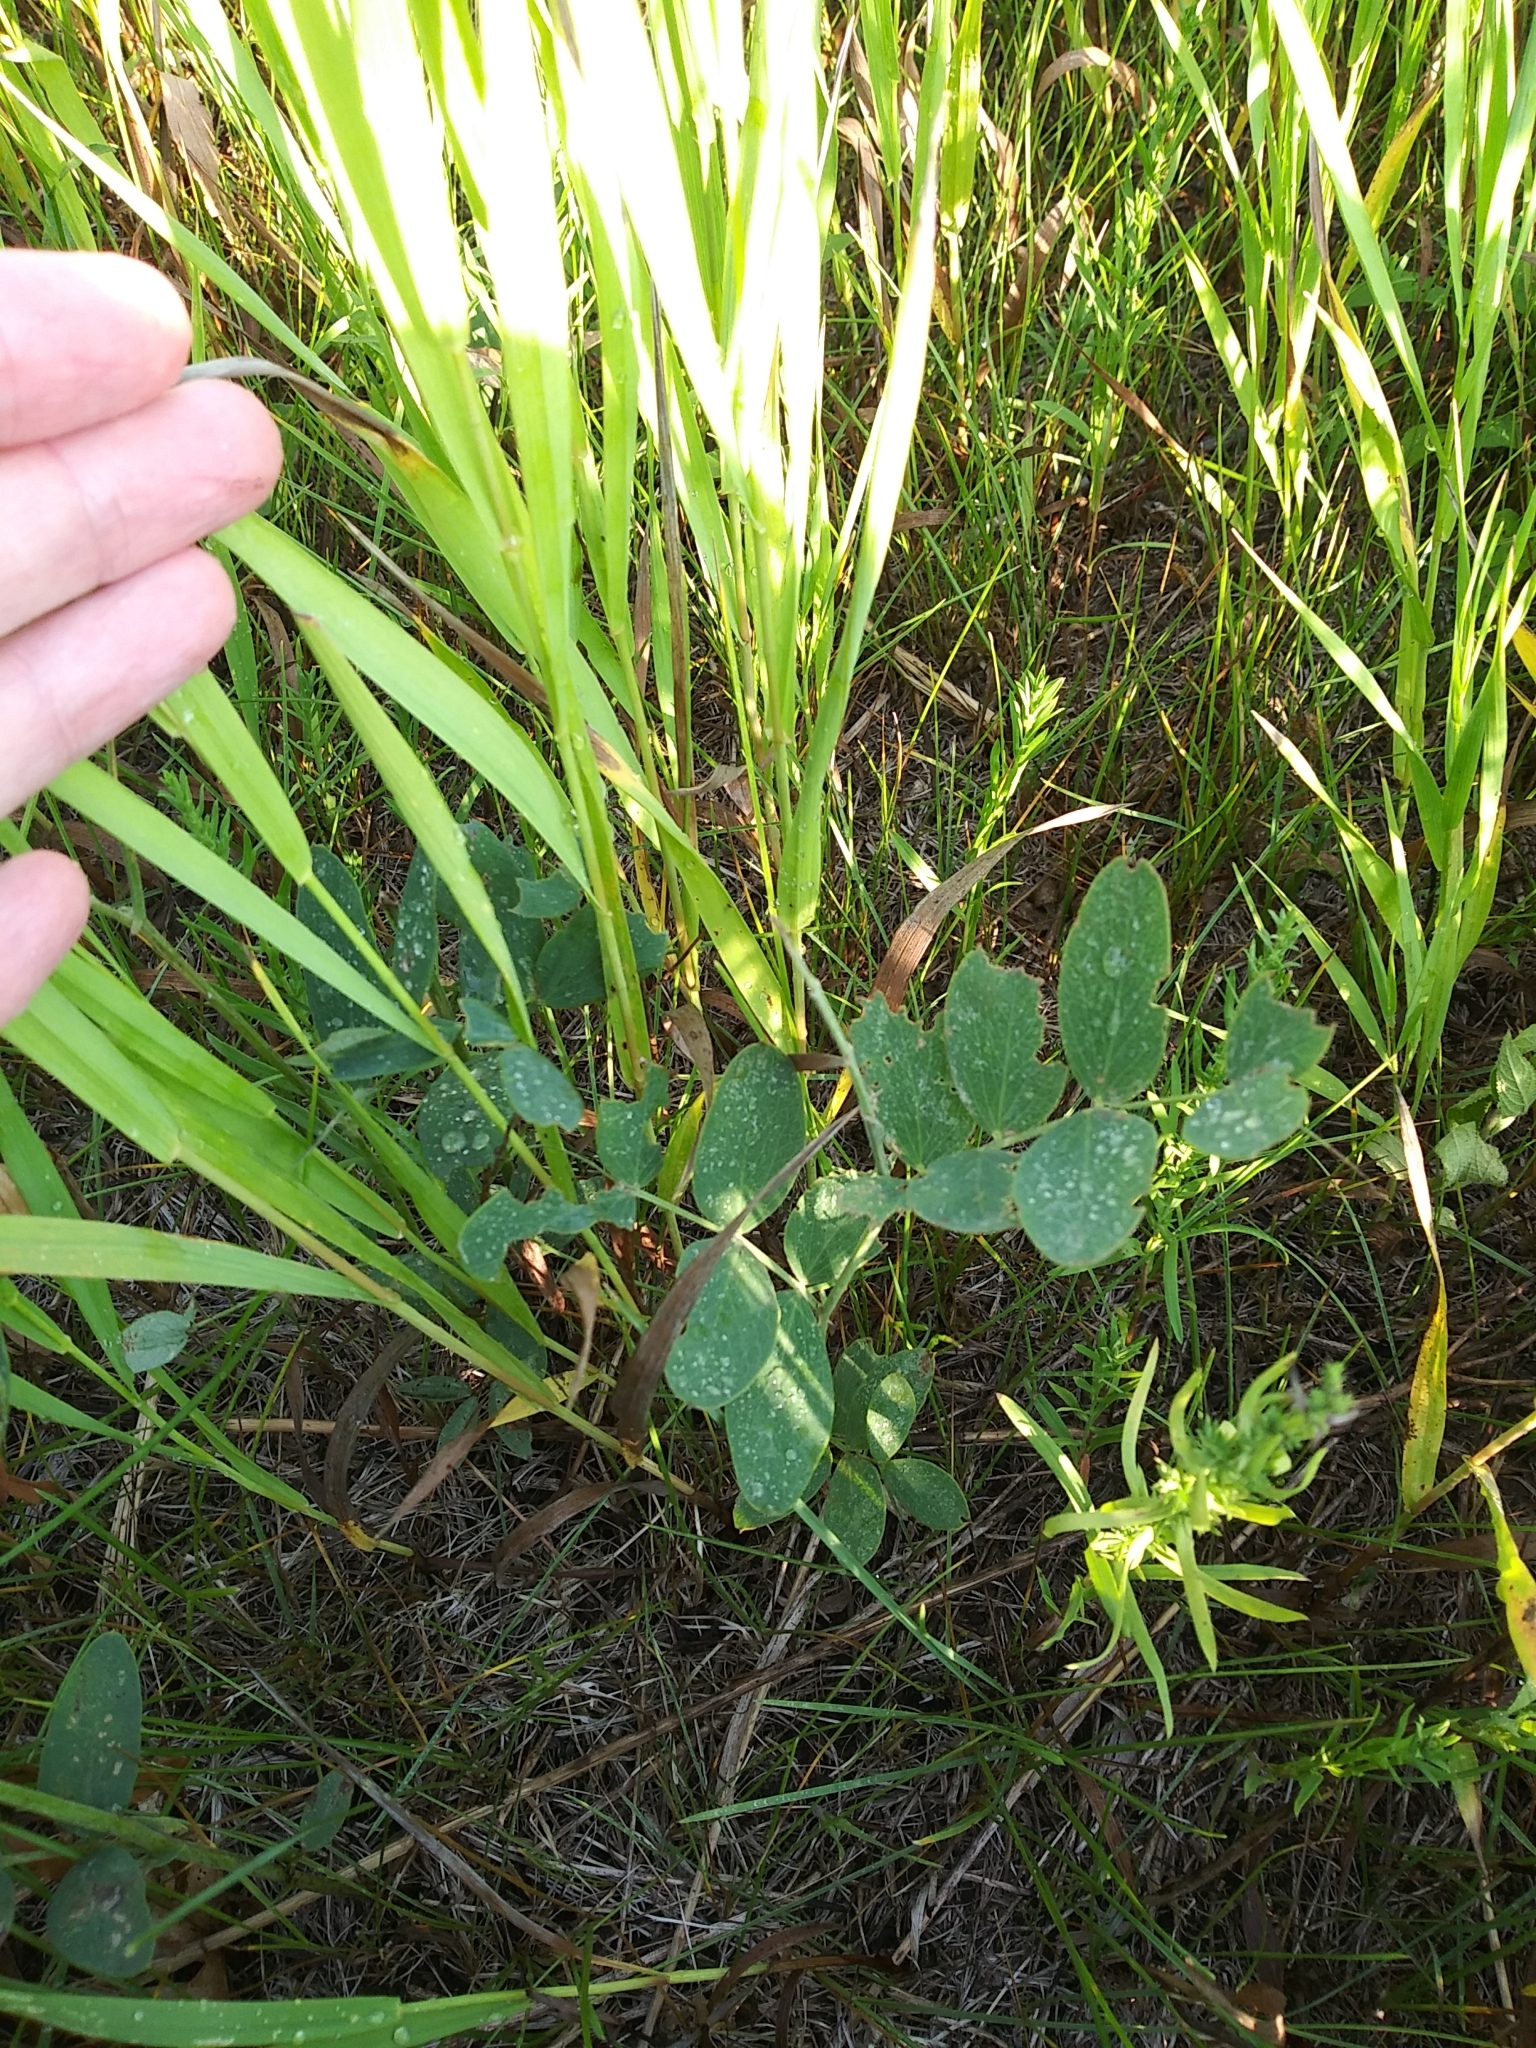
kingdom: Plantae
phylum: Tracheophyta
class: Magnoliopsida
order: Fabales
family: Fabaceae
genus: Lathyrus
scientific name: Lathyrus venosus
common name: Forest-pea
